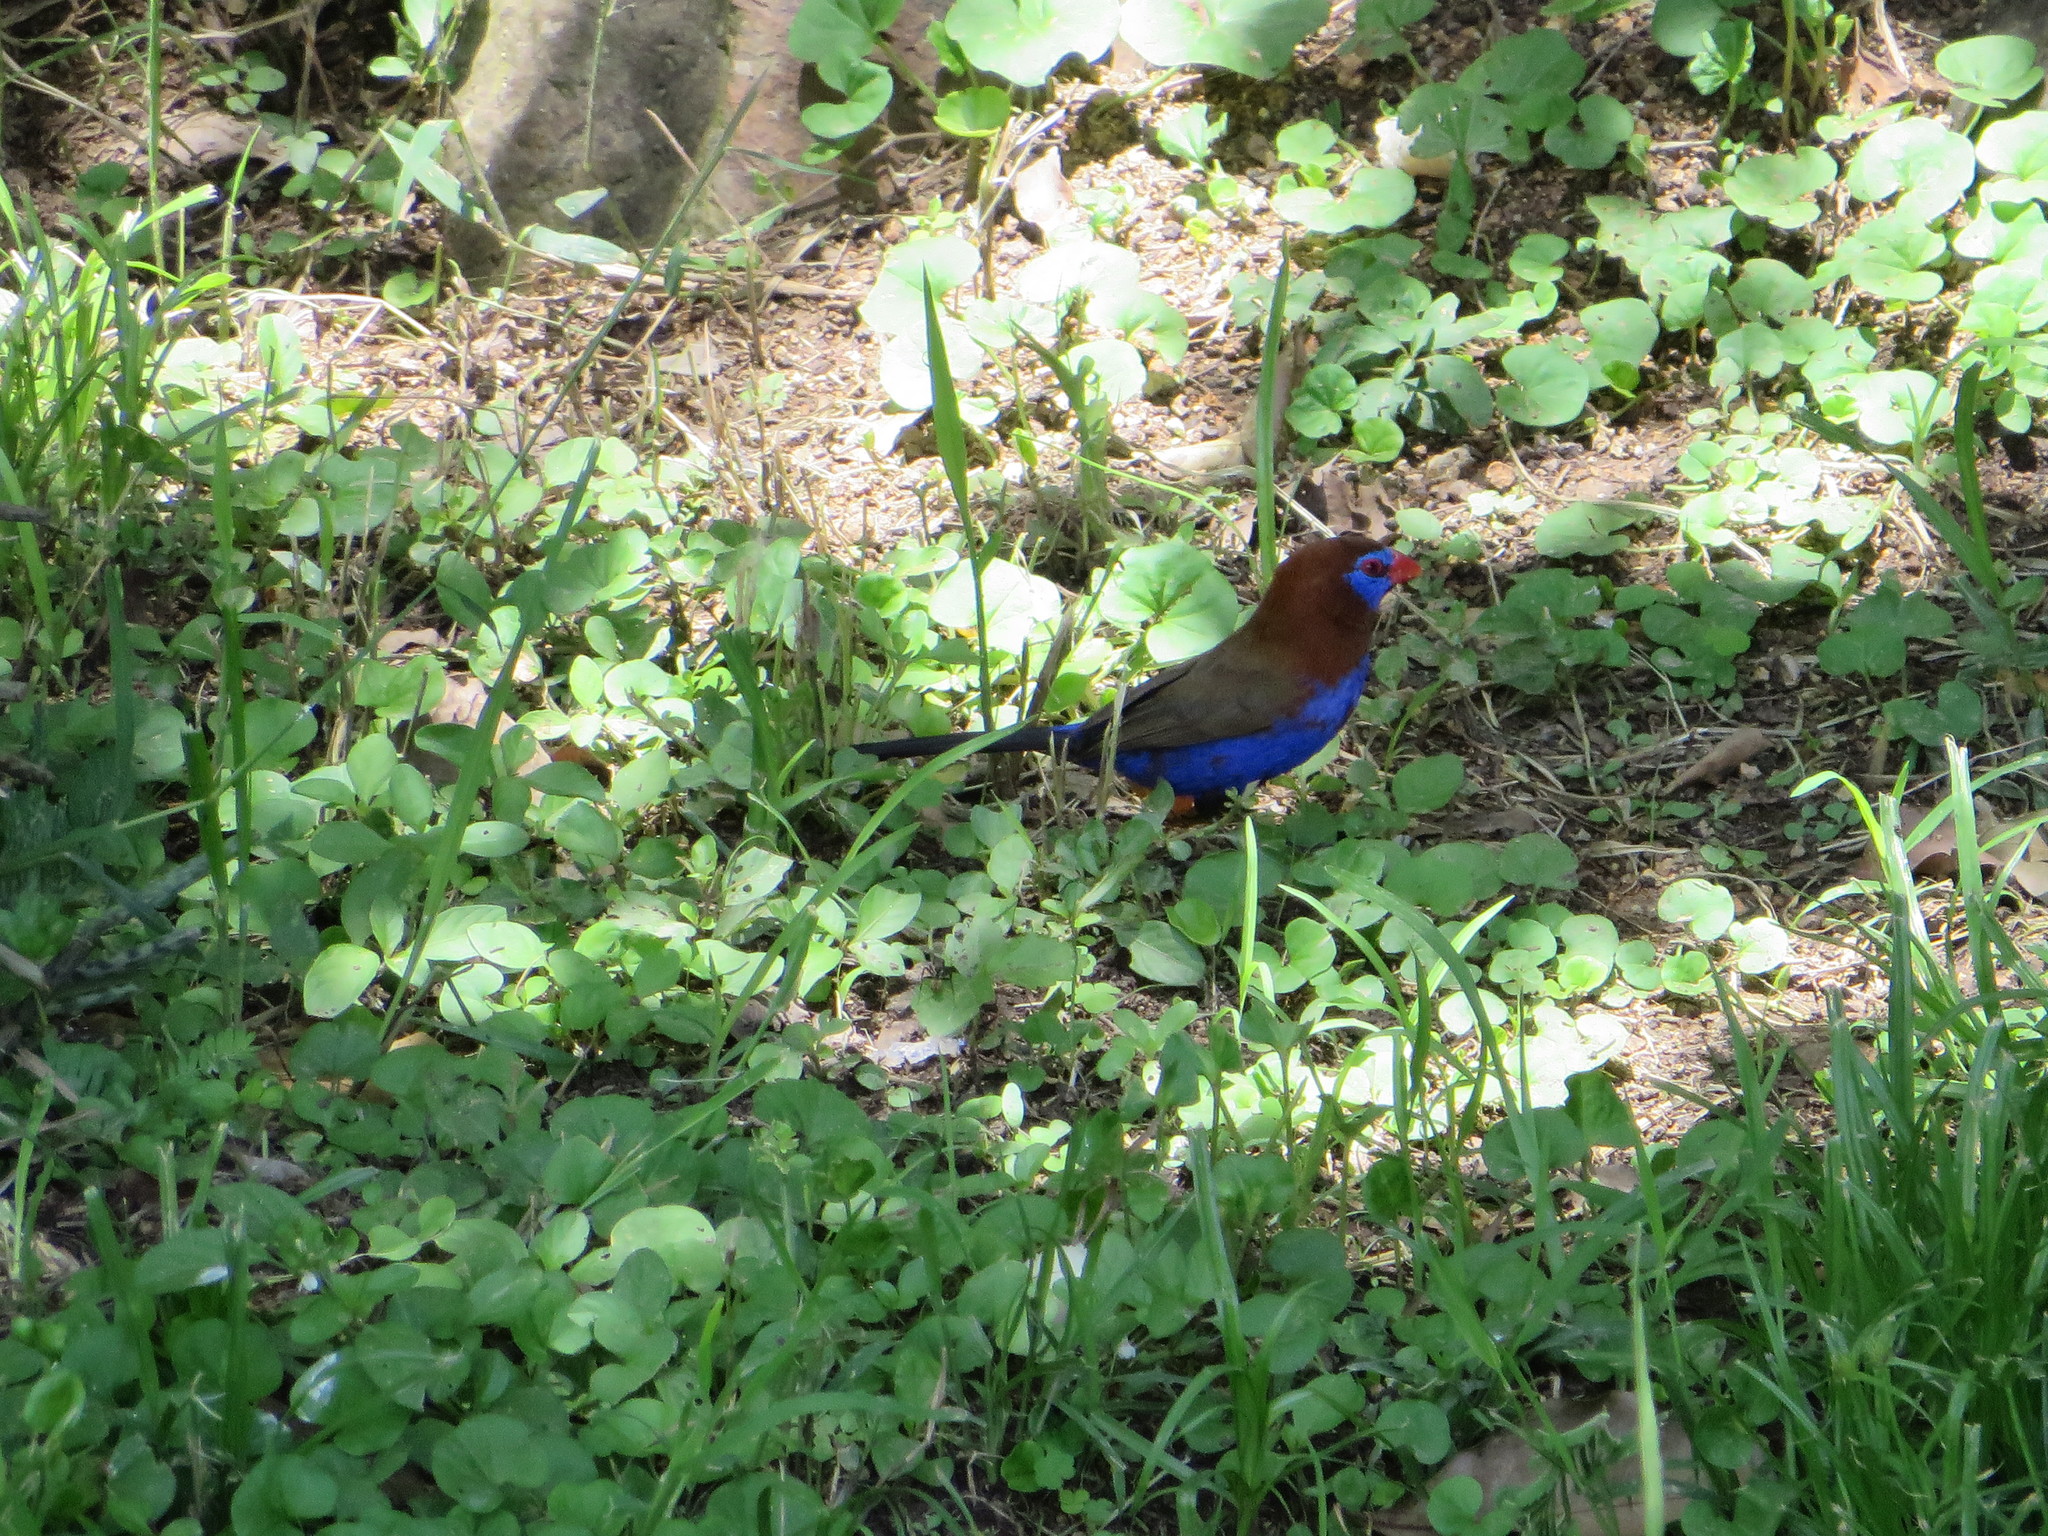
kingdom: Animalia
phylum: Chordata
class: Aves
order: Passeriformes
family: Estrildidae
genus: Uraeginthus
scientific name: Uraeginthus ianthinogaster
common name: Purple grenadier
